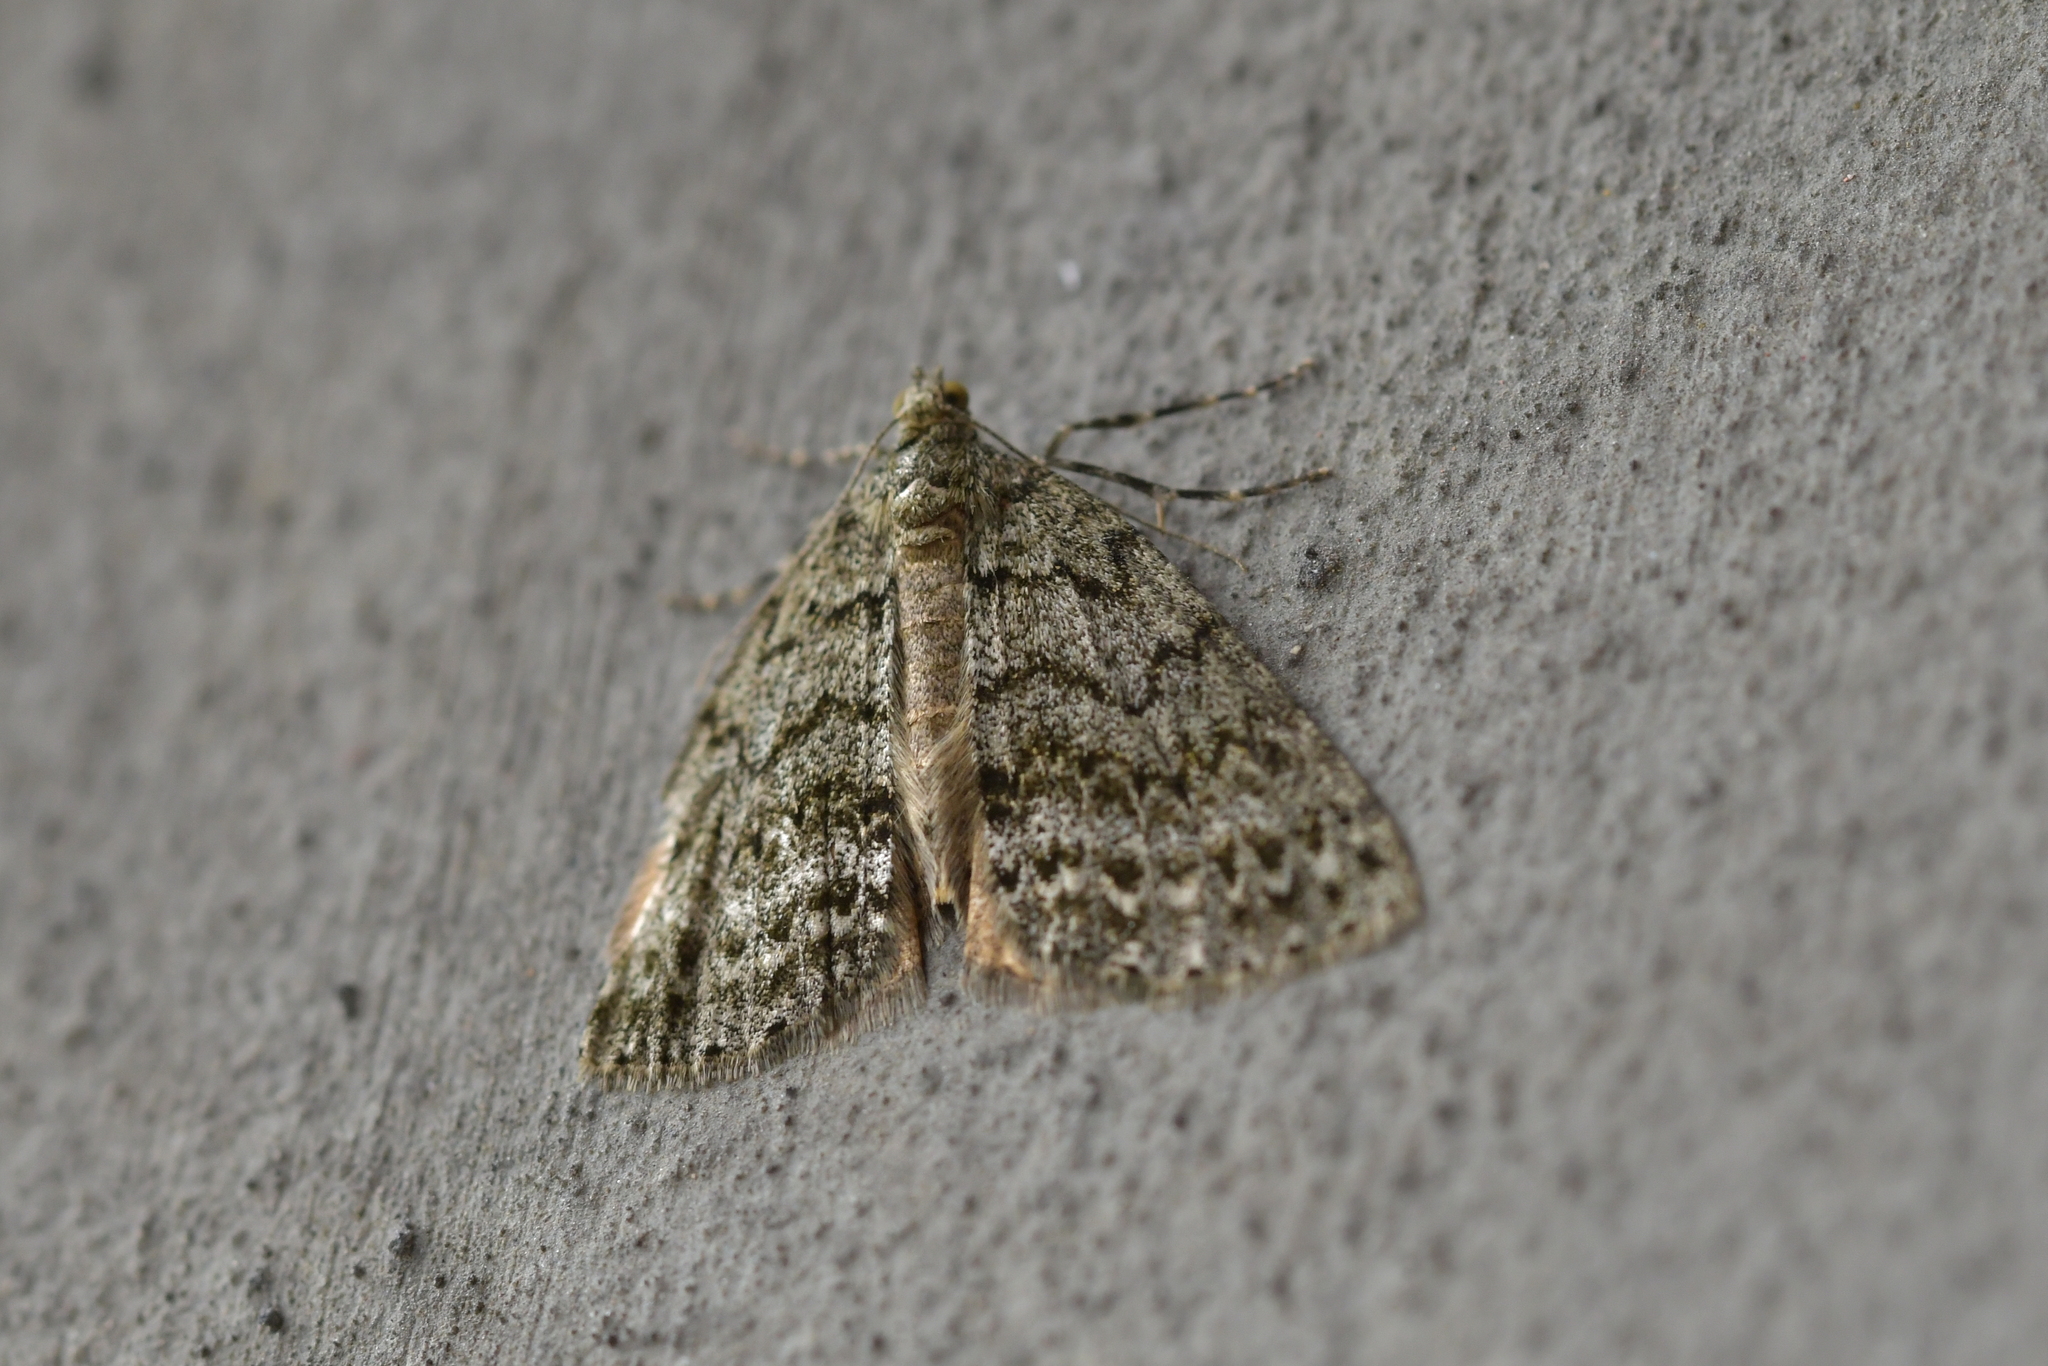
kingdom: Animalia
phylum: Arthropoda
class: Insecta
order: Lepidoptera
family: Geometridae
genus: Pseudocoremia
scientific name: Pseudocoremia indistincta
